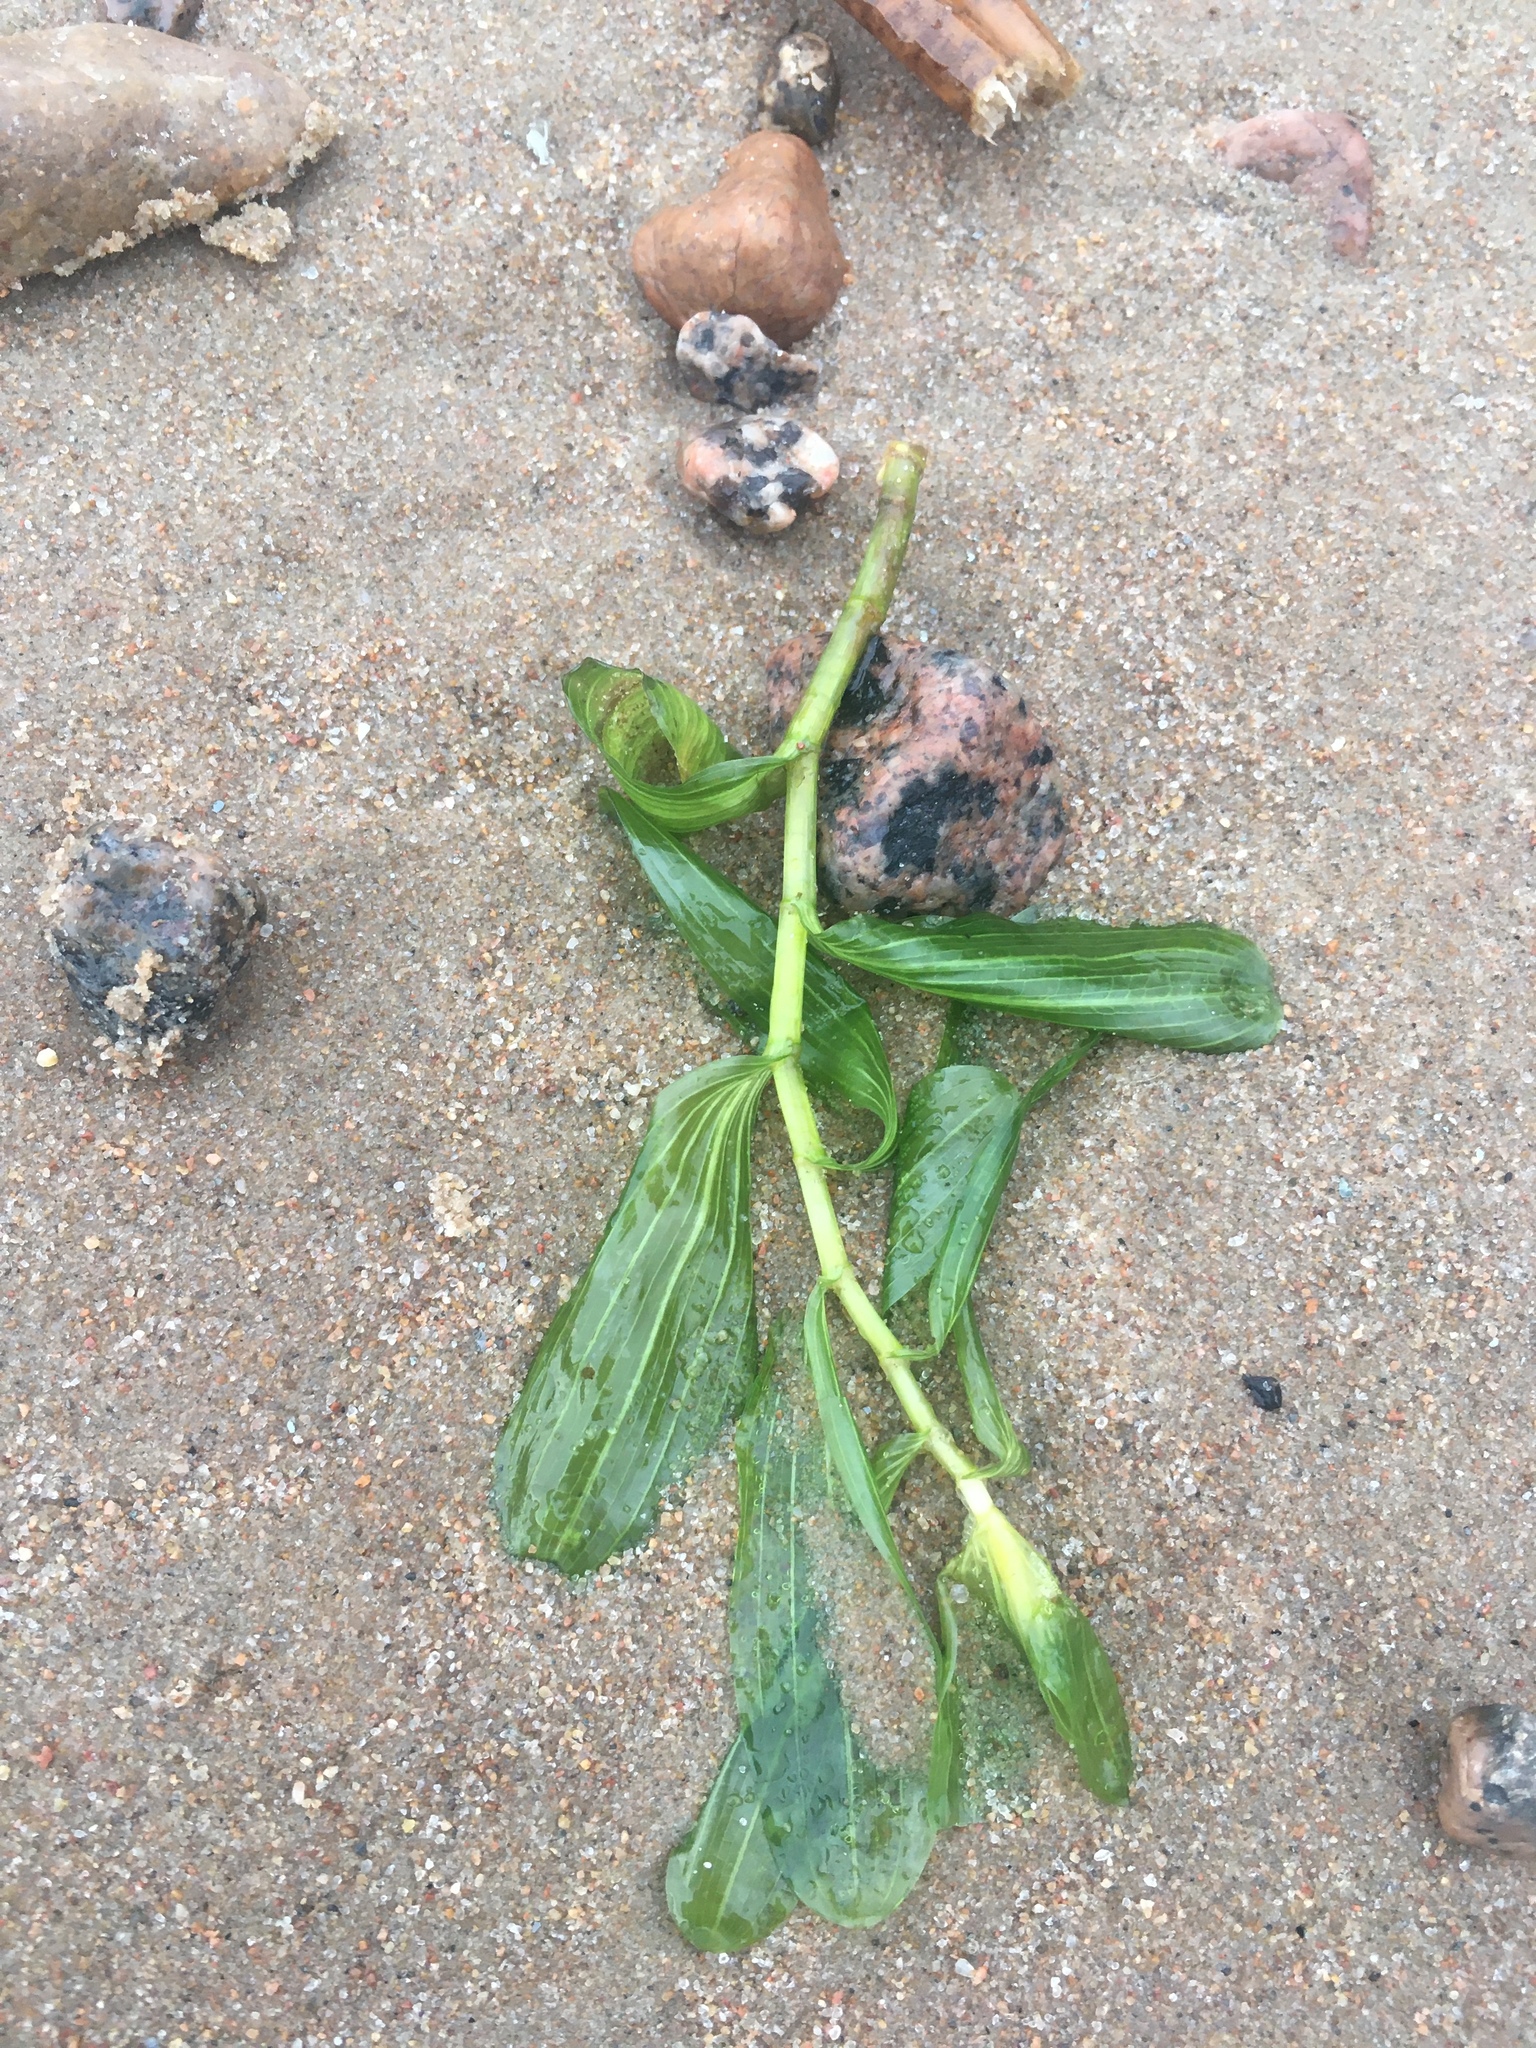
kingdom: Plantae
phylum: Tracheophyta
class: Liliopsida
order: Alismatales
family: Potamogetonaceae
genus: Potamogeton
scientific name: Potamogeton perfoliatus
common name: Perfoliate pondweed
